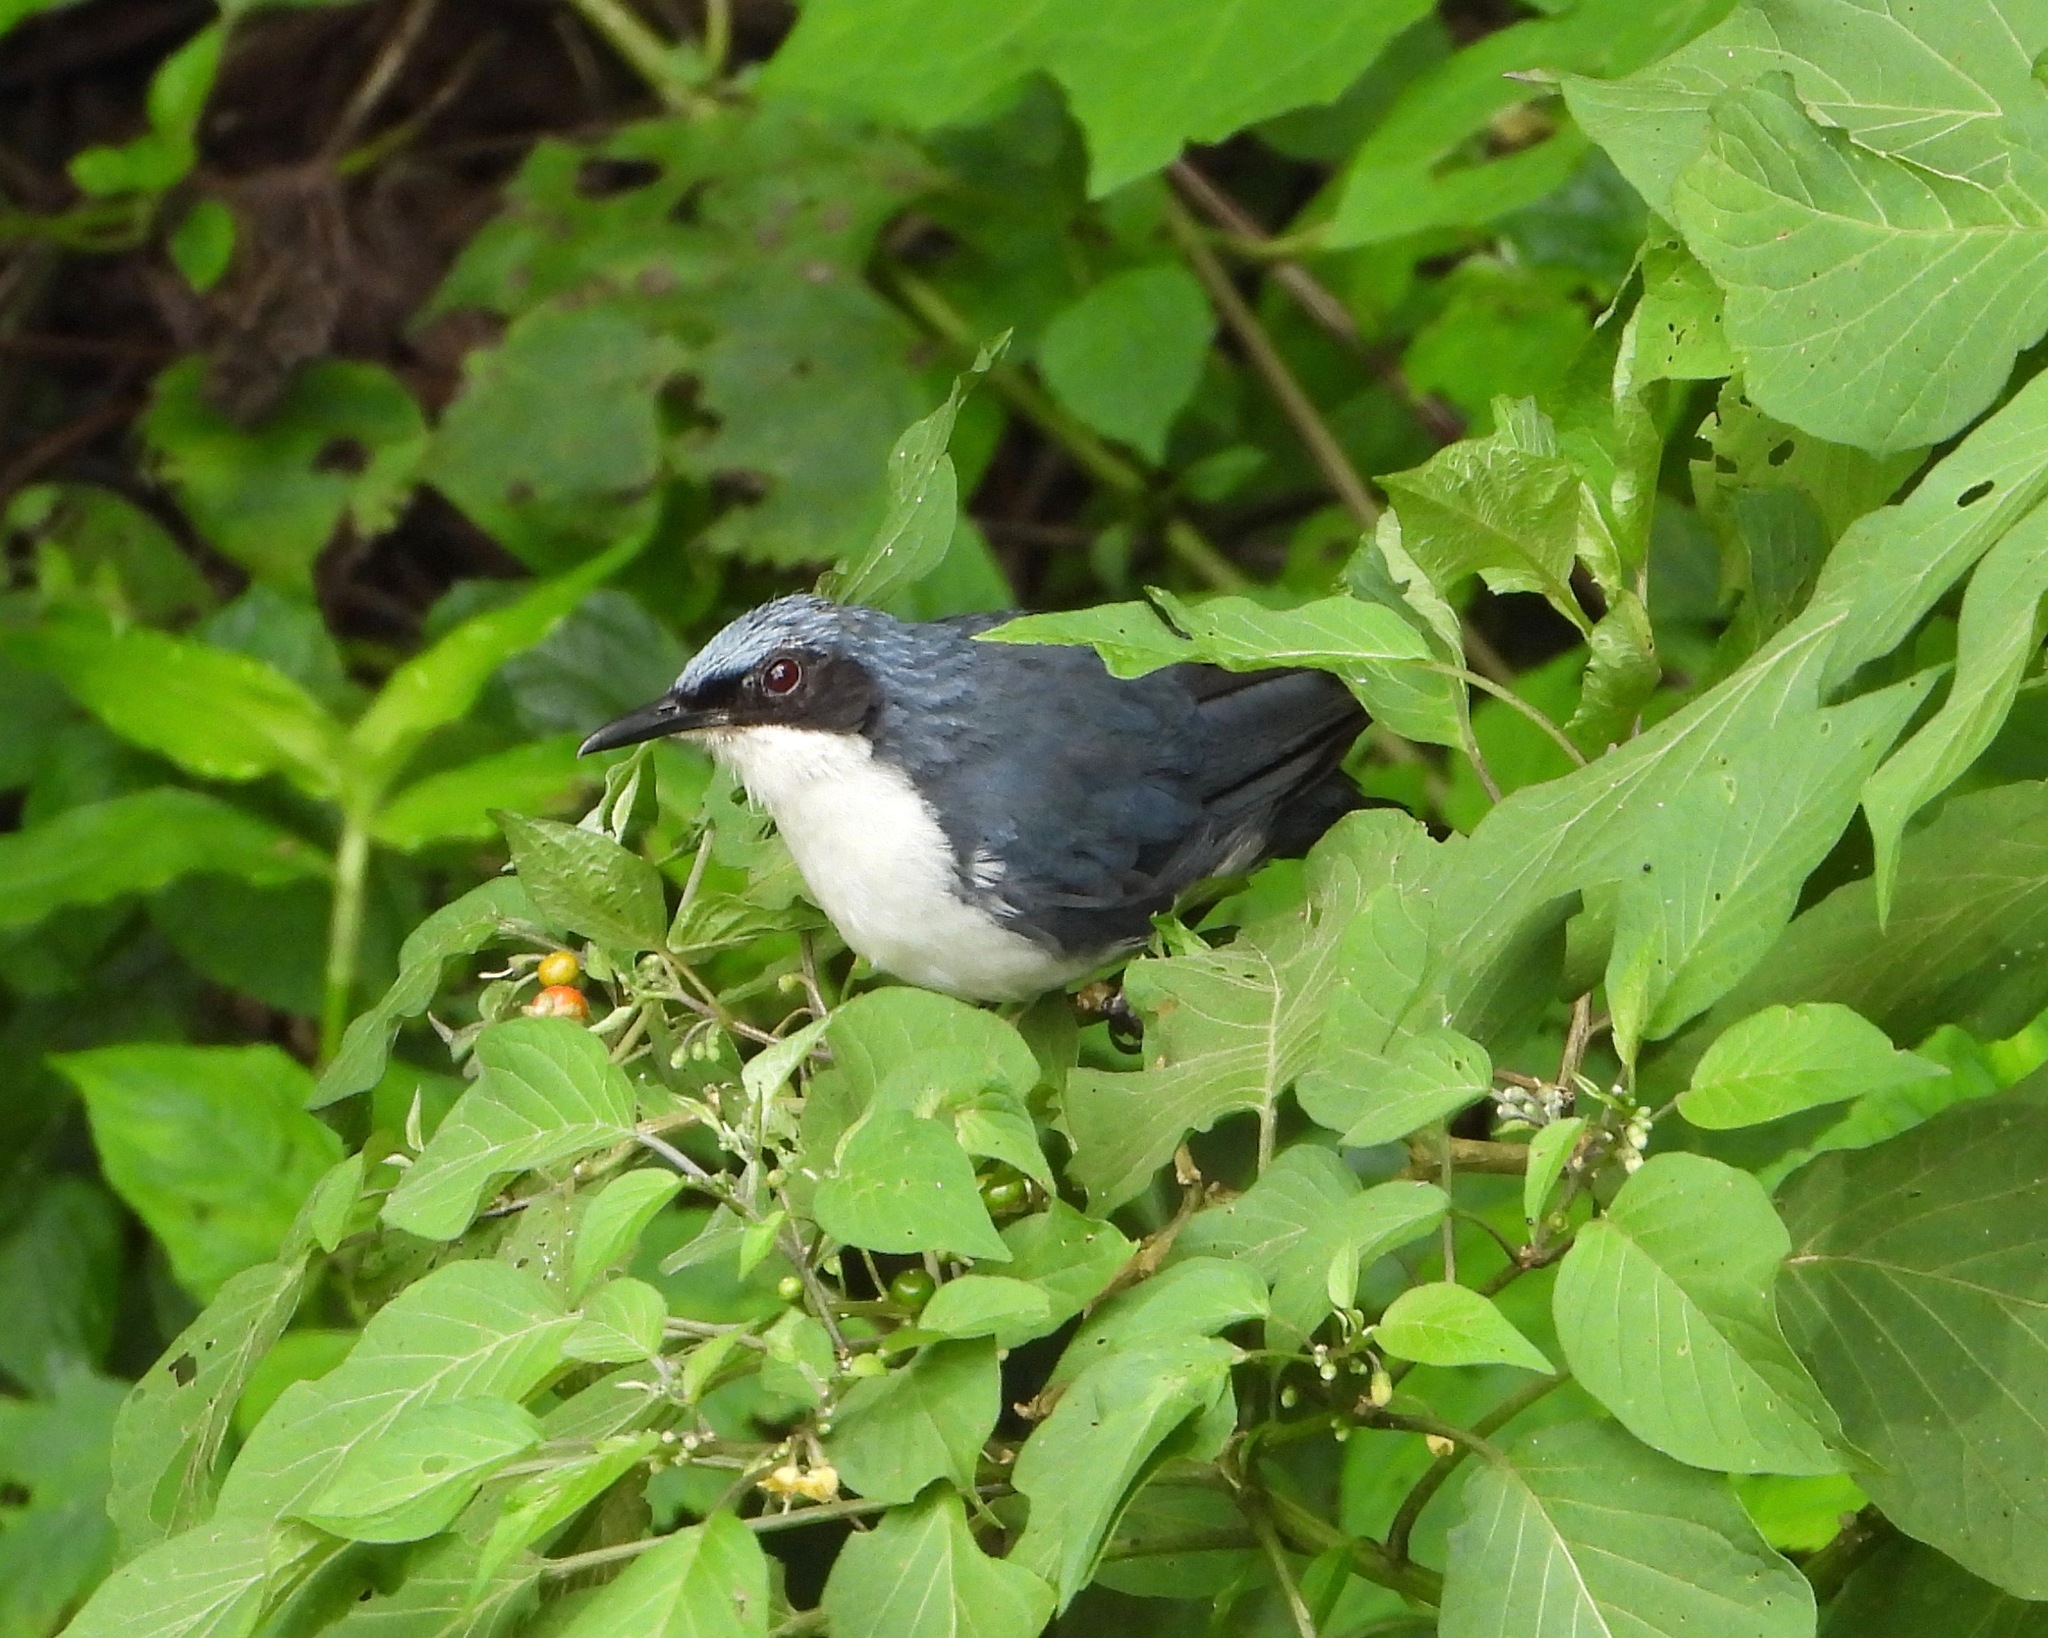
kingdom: Animalia
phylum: Chordata
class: Aves
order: Passeriformes
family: Mimidae
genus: Melanotis
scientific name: Melanotis hypoleucus
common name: Blue-and-white mockingbird
